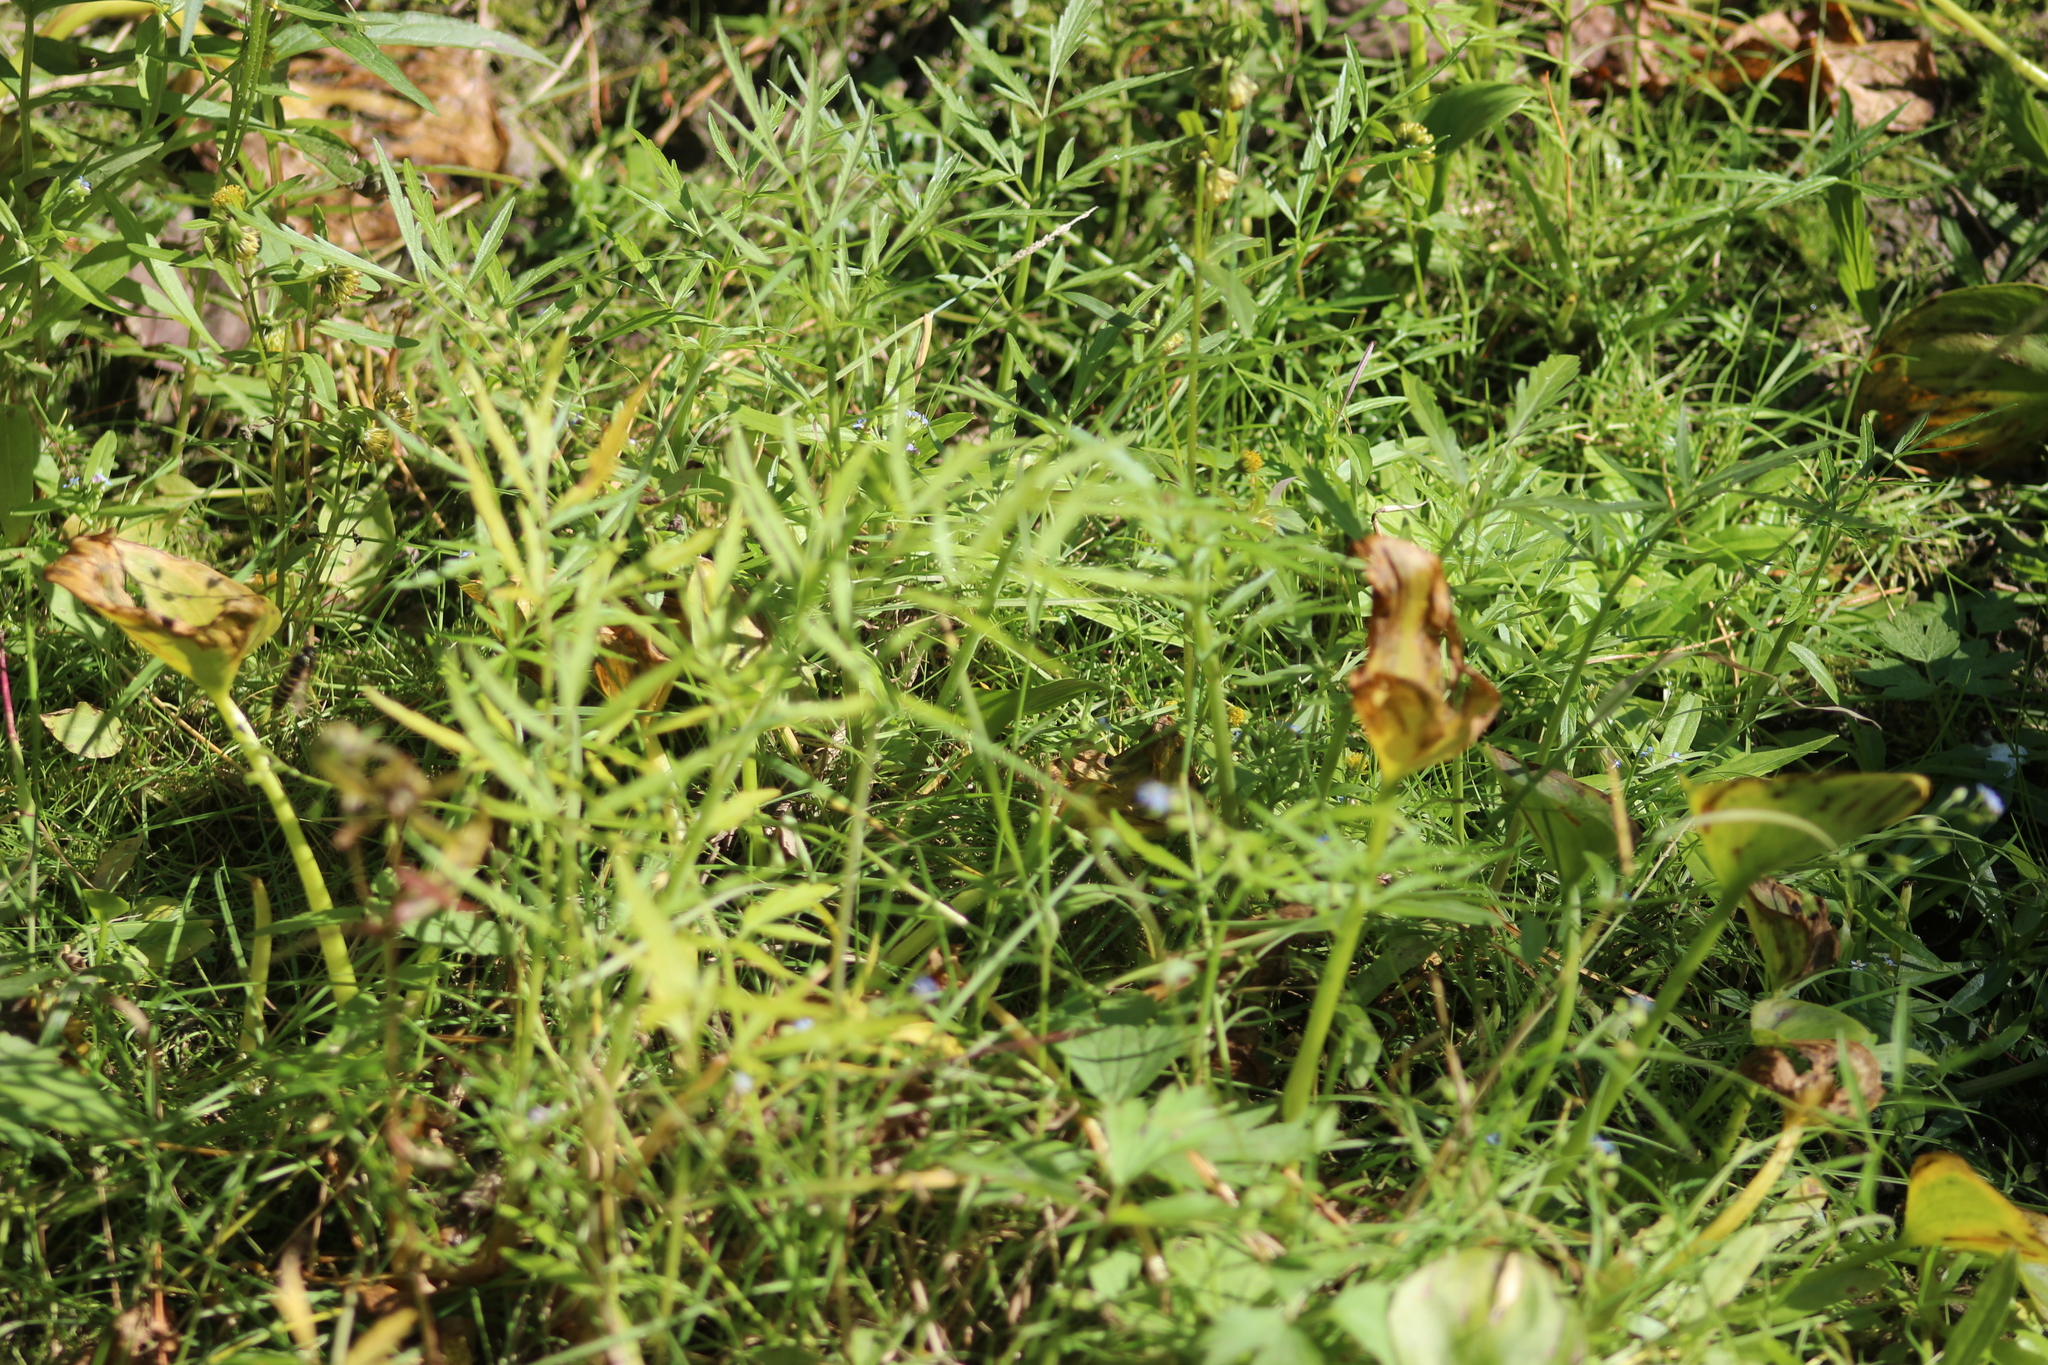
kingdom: Plantae
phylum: Tracheophyta
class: Magnoliopsida
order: Apiales
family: Apiaceae
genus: Cicuta
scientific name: Cicuta virosa
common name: Cowbane
